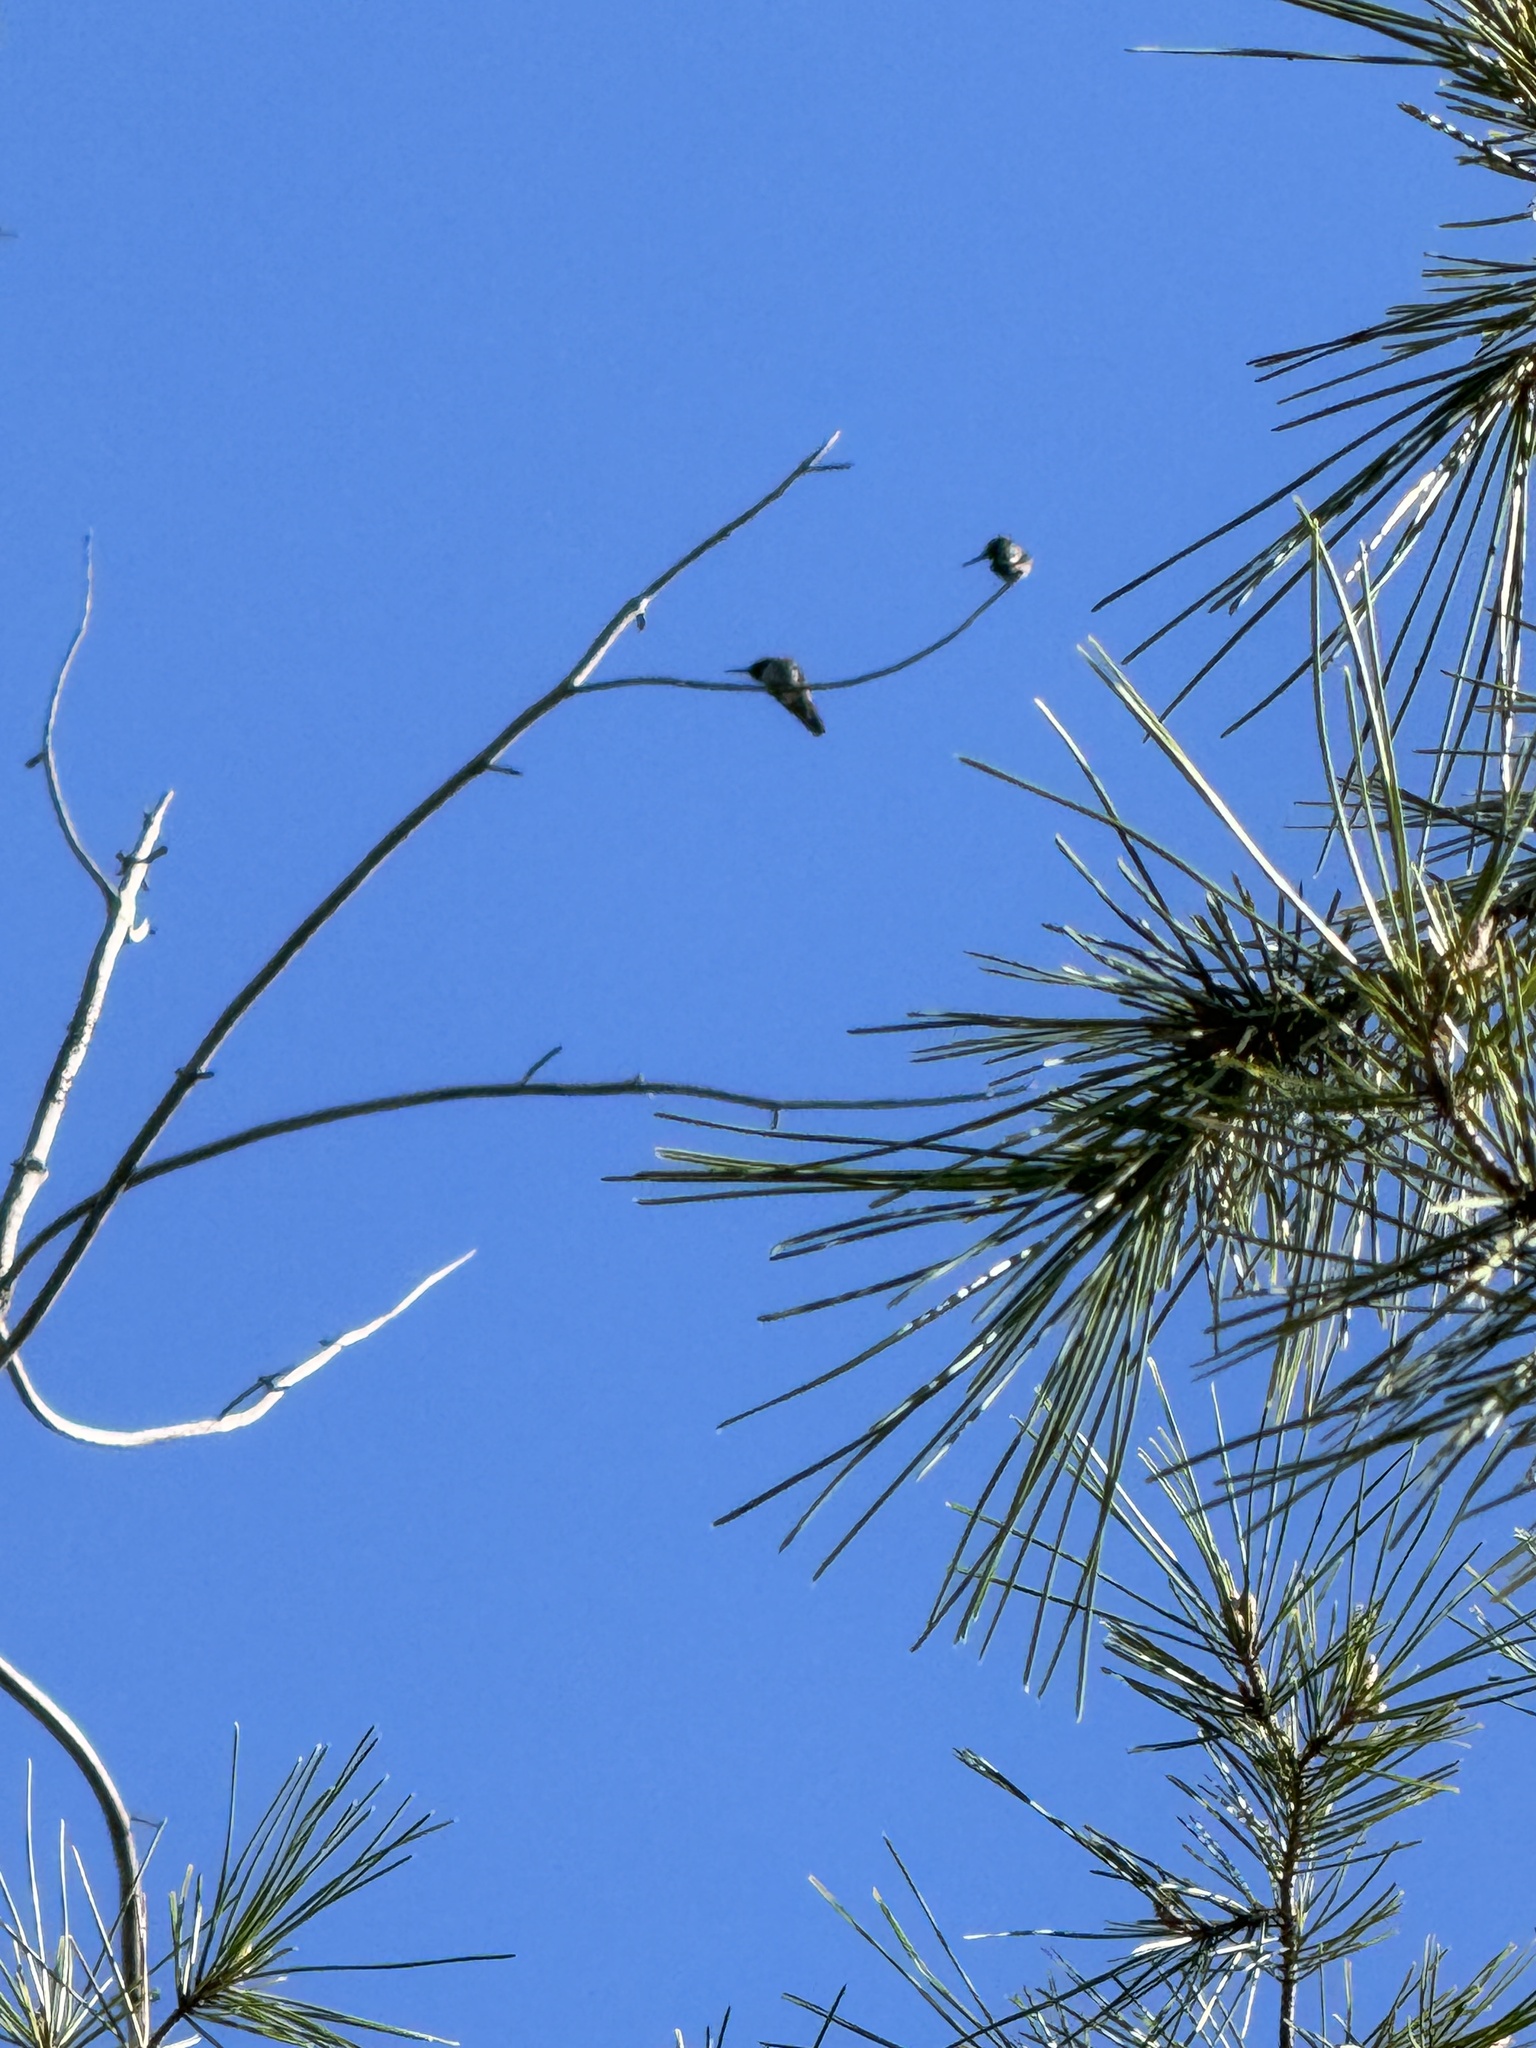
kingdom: Animalia
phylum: Chordata
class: Aves
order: Apodiformes
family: Trochilidae
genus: Calypte
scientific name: Calypte anna
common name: Anna's hummingbird
